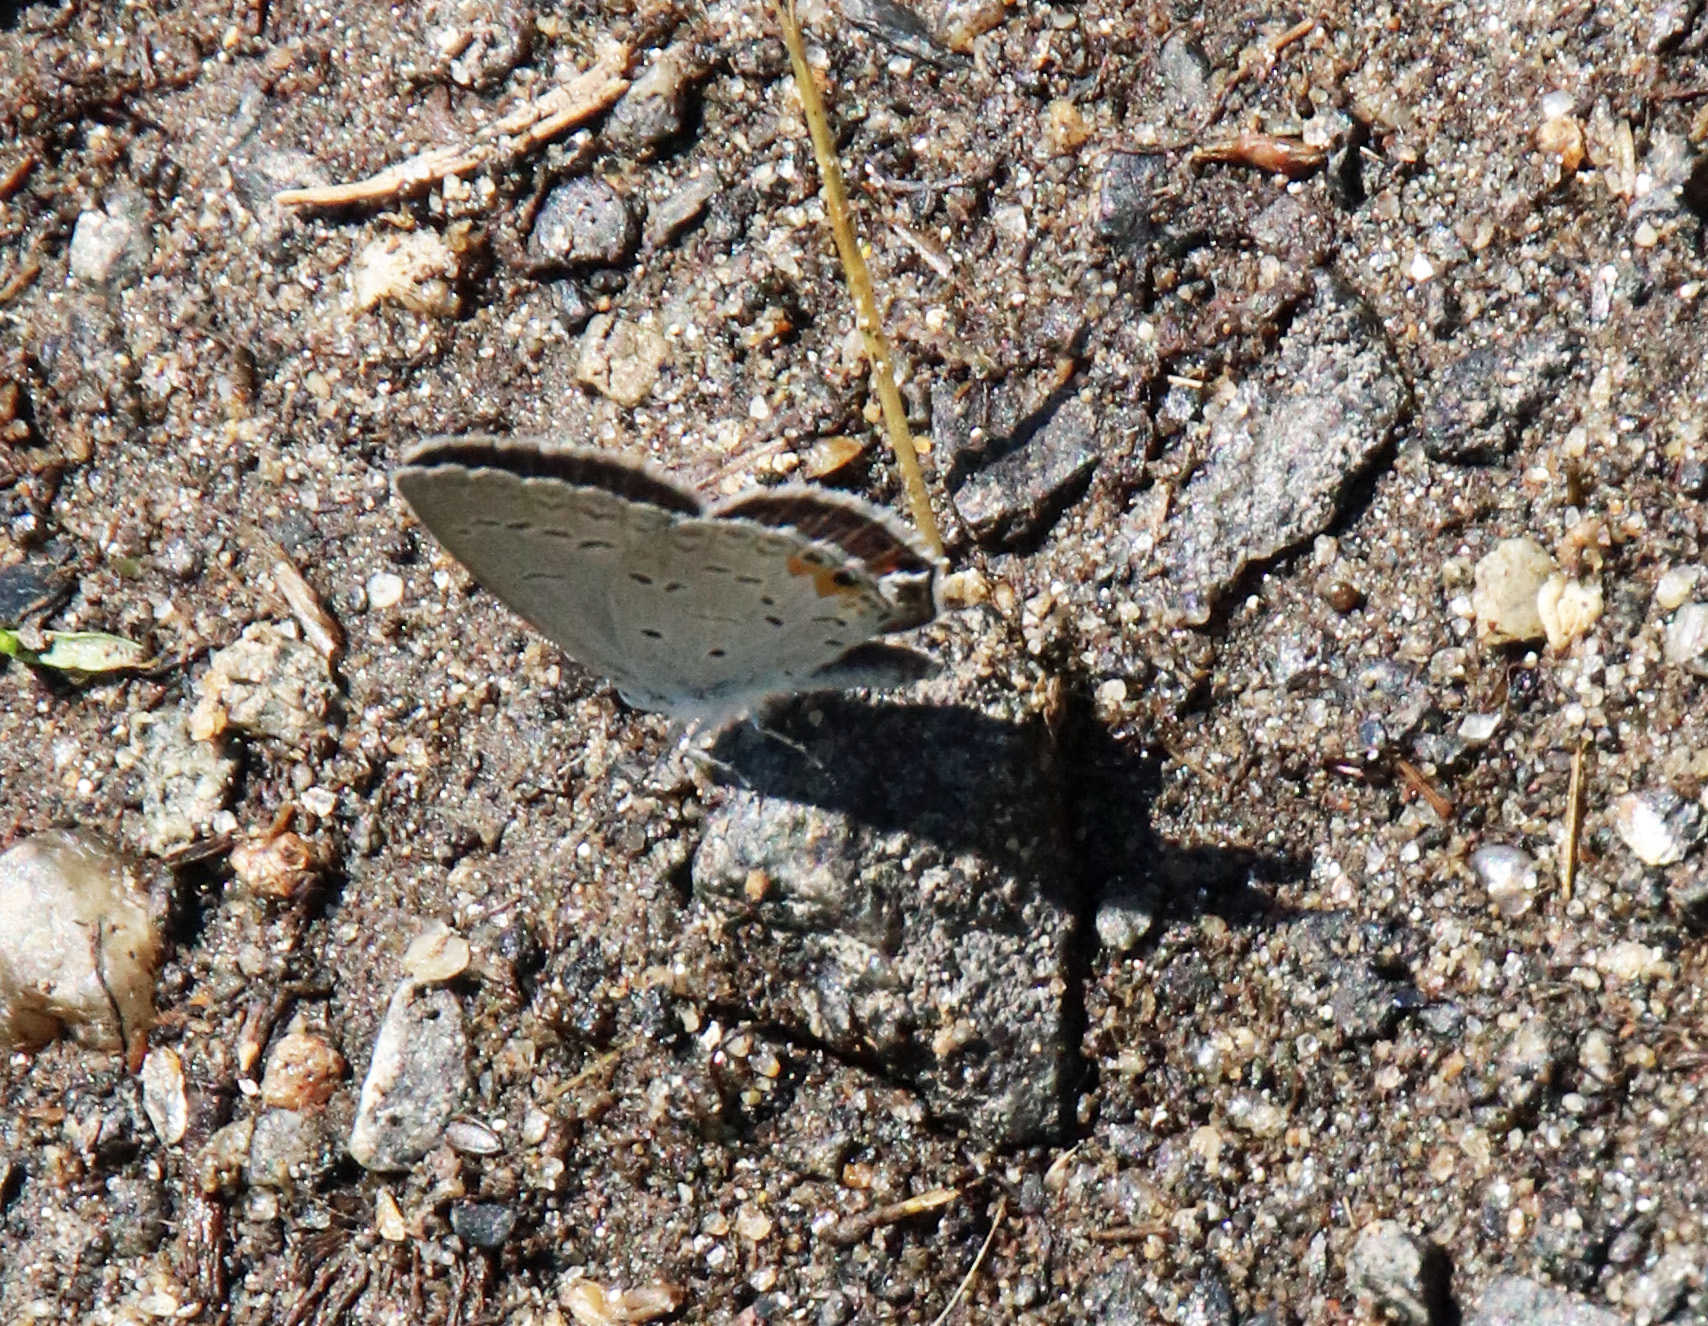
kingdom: Animalia
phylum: Arthropoda
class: Insecta
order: Lepidoptera
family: Lycaenidae
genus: Elkalyce
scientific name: Elkalyce comyntas
